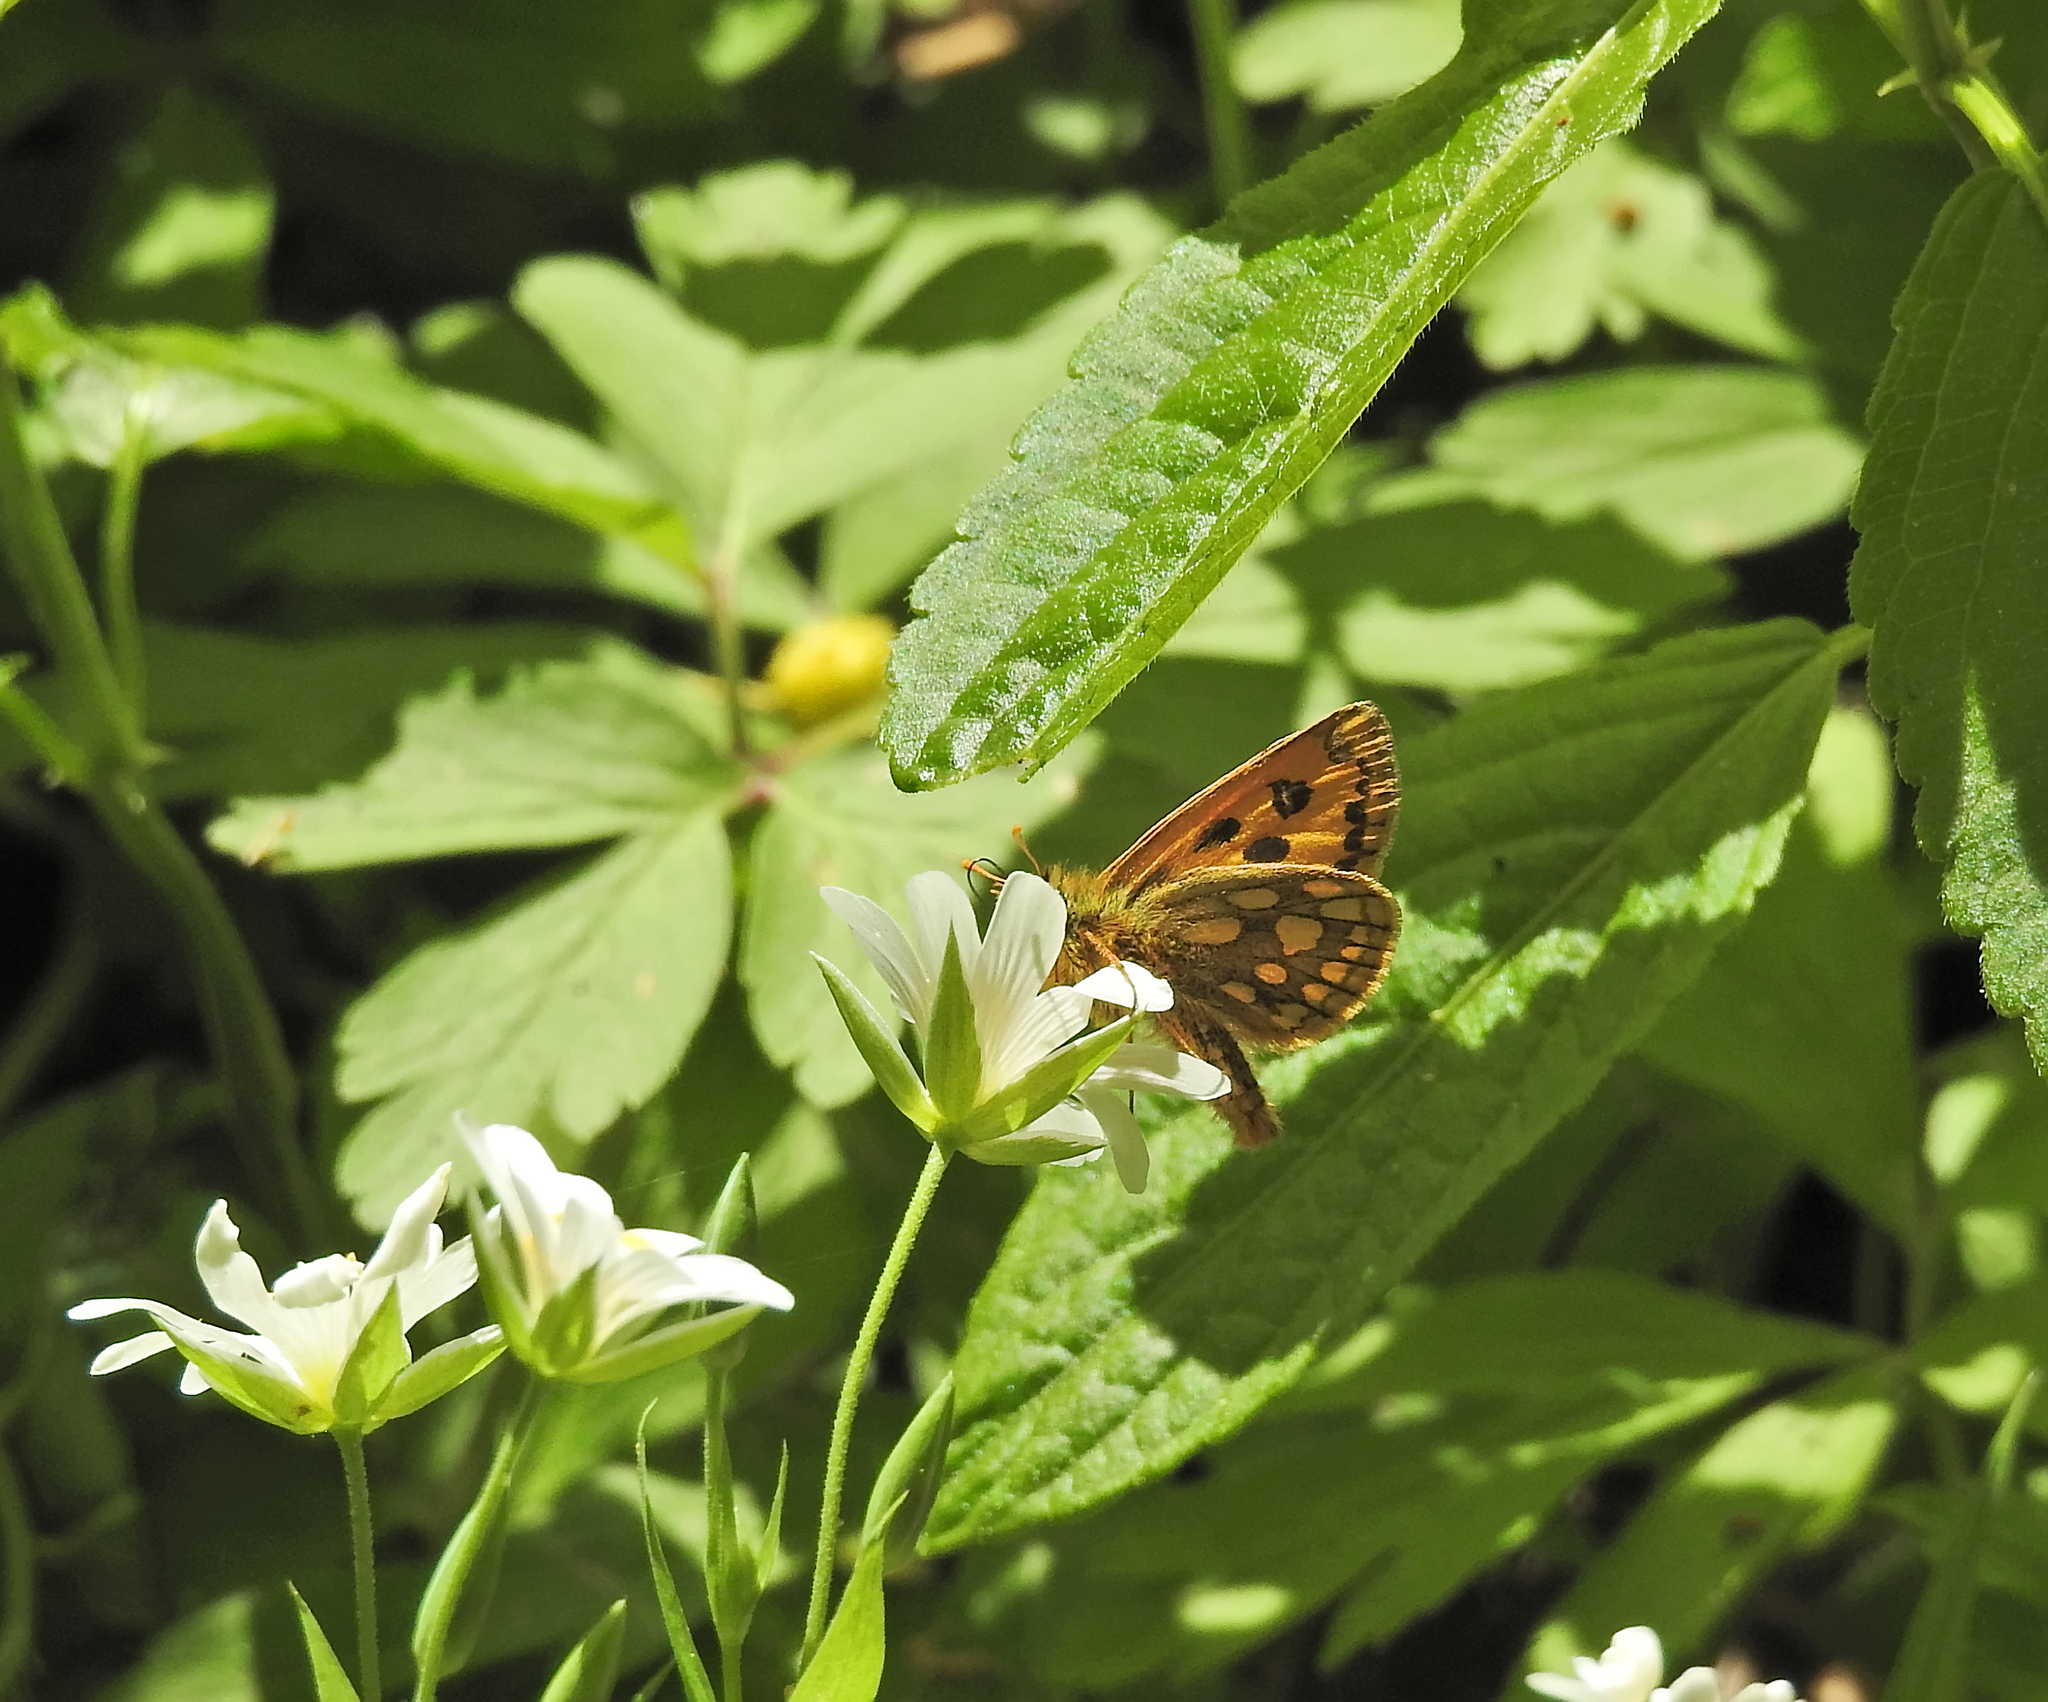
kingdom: Animalia
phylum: Arthropoda
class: Insecta
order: Lepidoptera
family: Hesperiidae
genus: Carterocephalus
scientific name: Carterocephalus silvicola
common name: Northern chequered skipper
